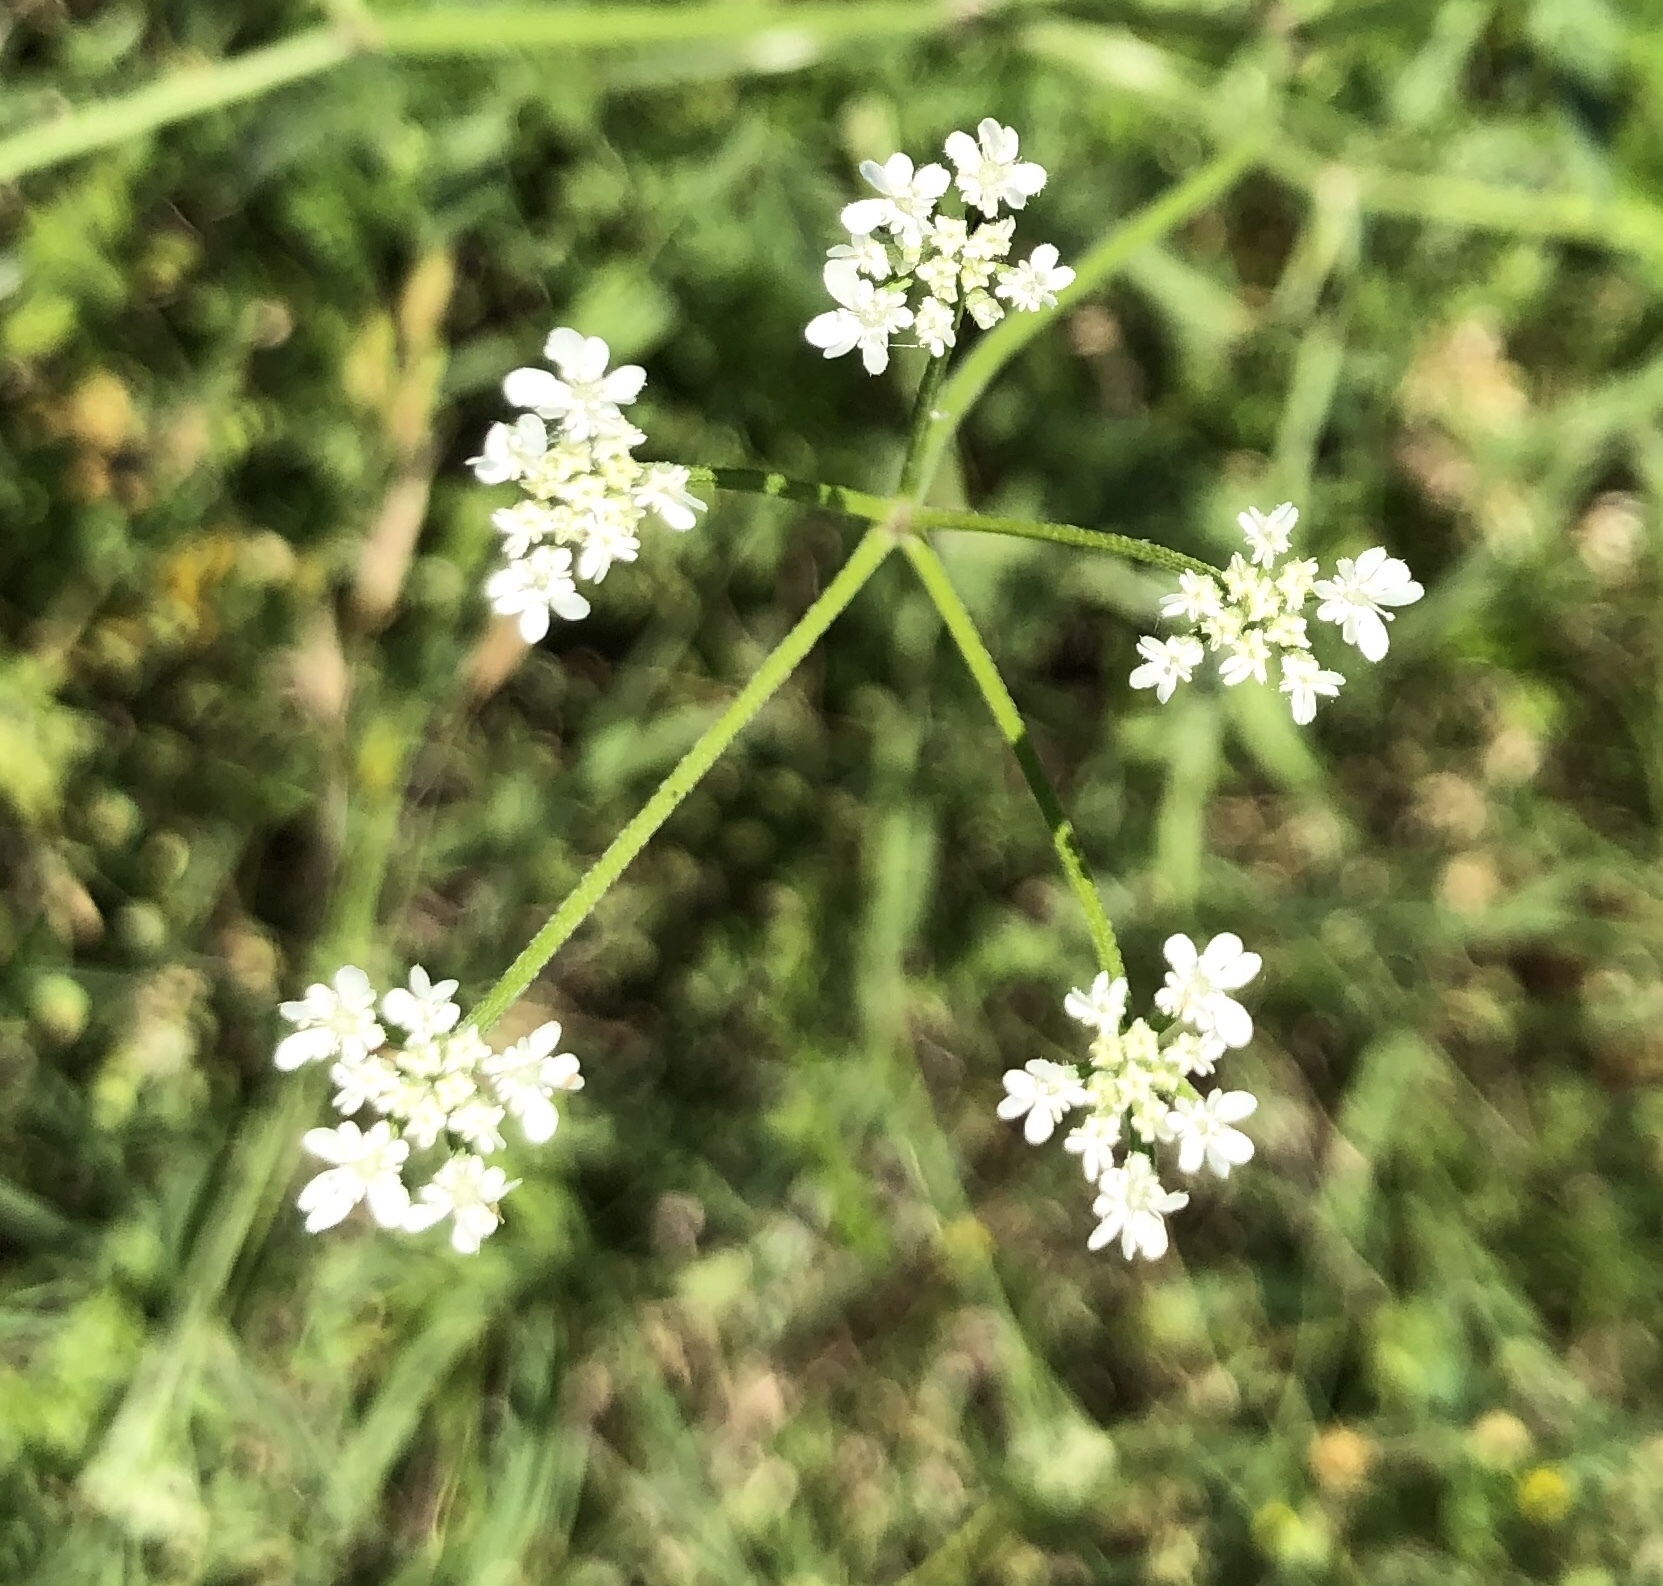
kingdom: Plantae
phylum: Tracheophyta
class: Magnoliopsida
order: Apiales
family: Apiaceae
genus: Torilis
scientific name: Torilis arvensis
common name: Spreading hedge-parsley
